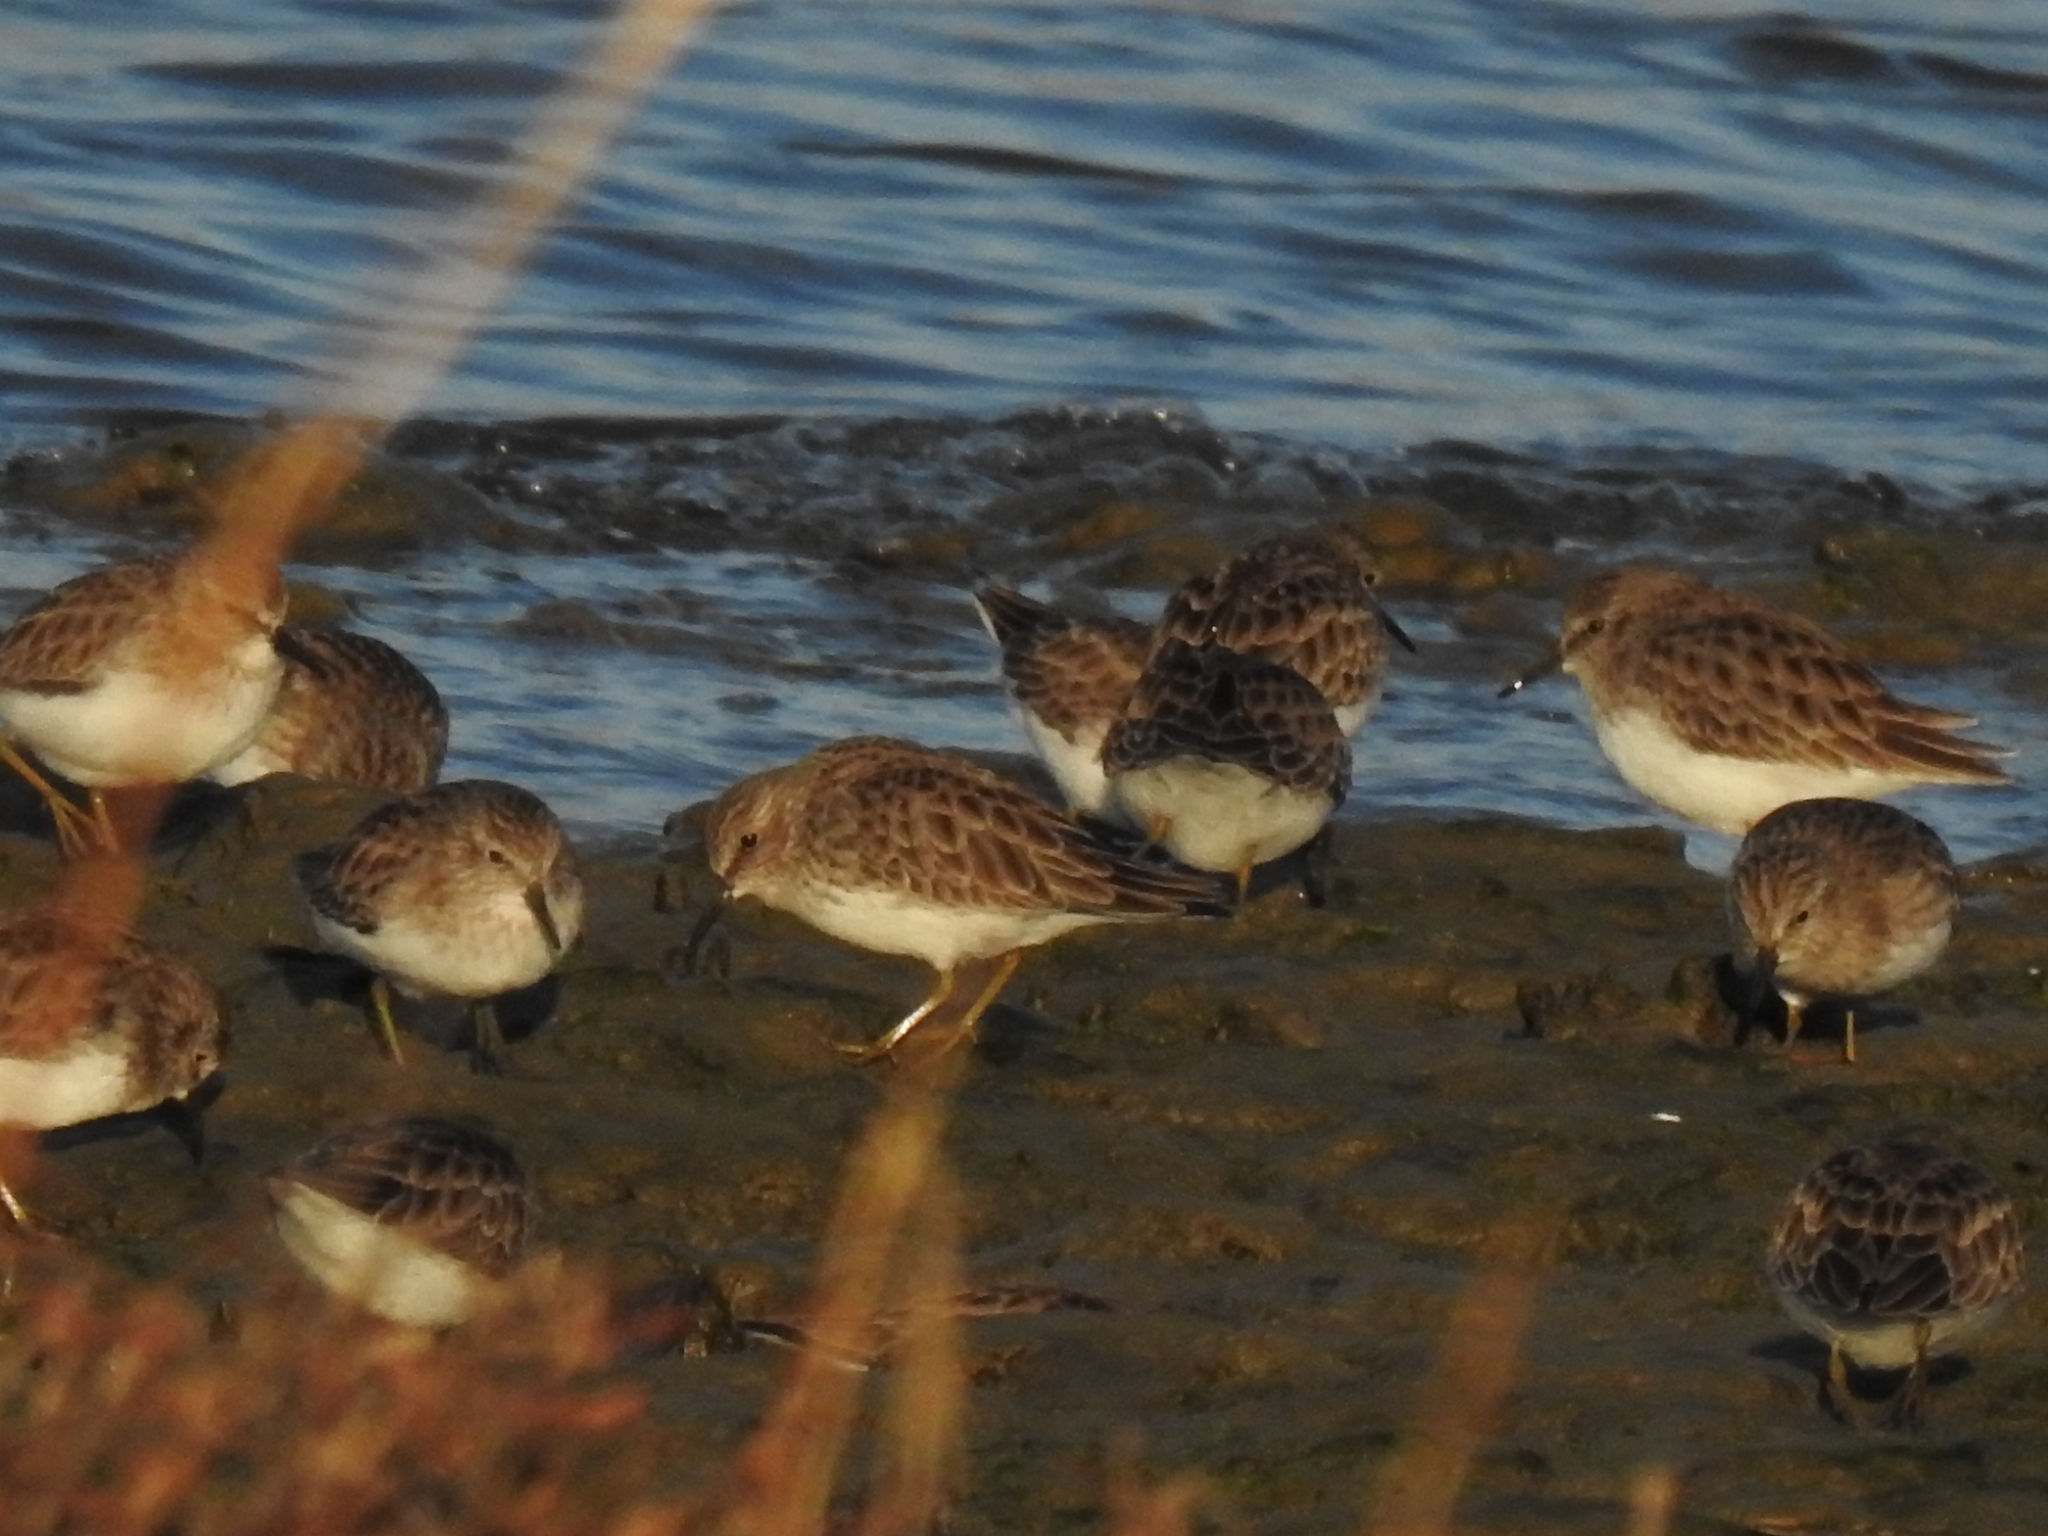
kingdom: Animalia
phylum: Chordata
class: Aves
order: Charadriiformes
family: Scolopacidae
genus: Calidris
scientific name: Calidris minutilla
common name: Least sandpiper
